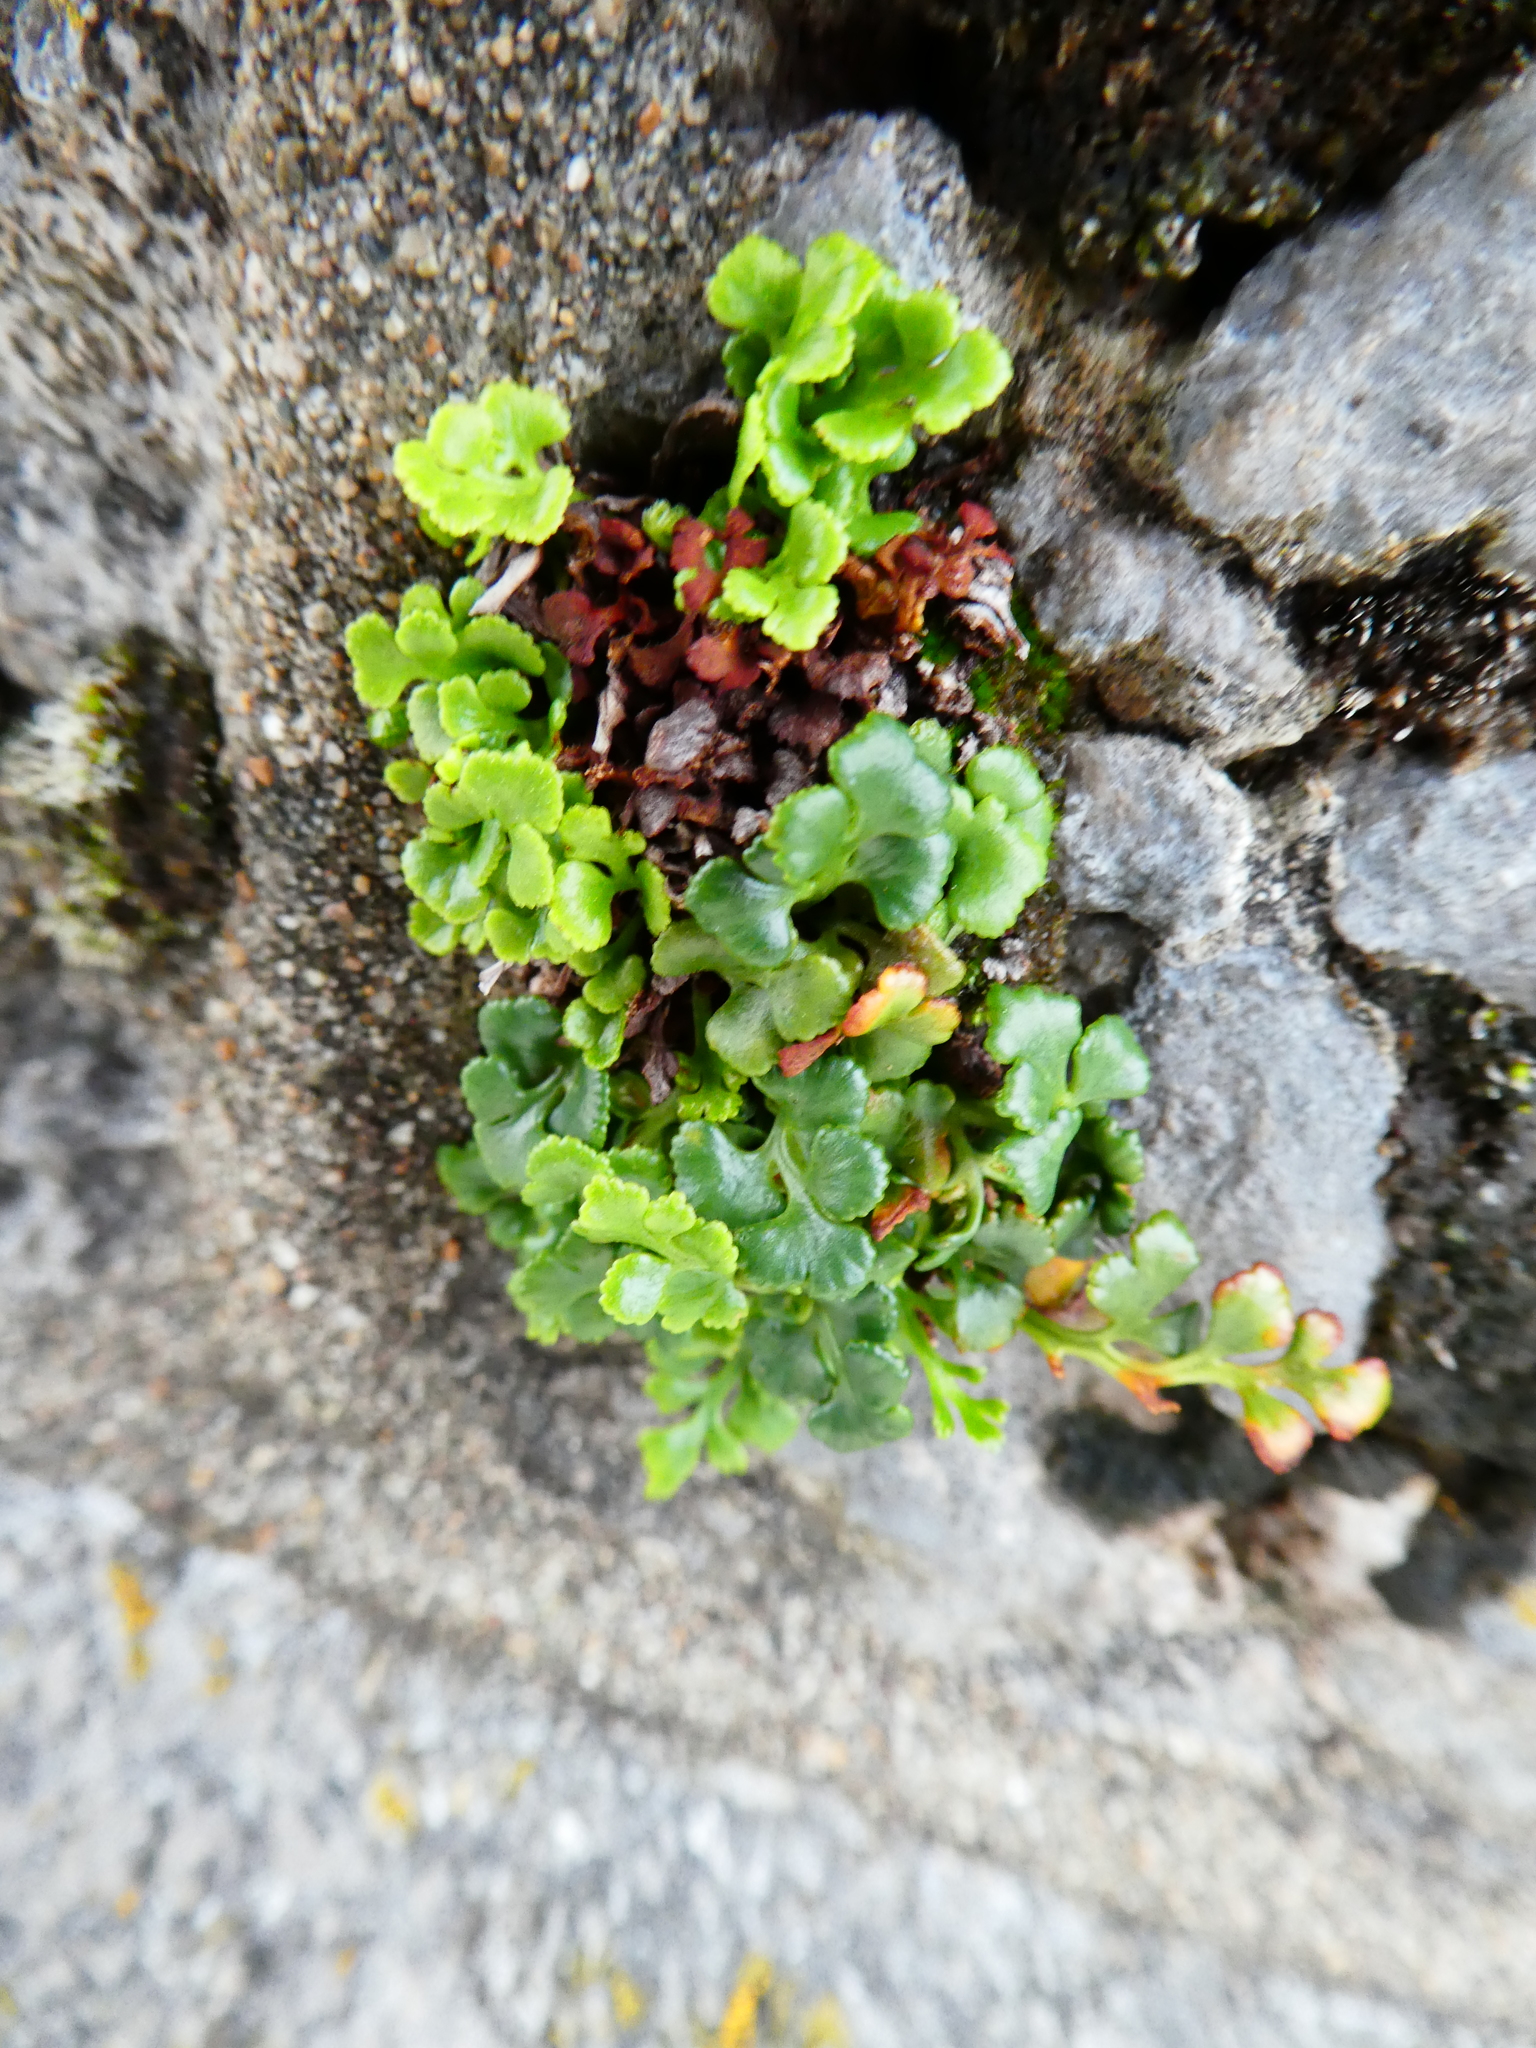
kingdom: Plantae
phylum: Tracheophyta
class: Polypodiopsida
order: Polypodiales
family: Aspleniaceae
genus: Asplenium
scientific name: Asplenium ruta-muraria
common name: Wall-rue
